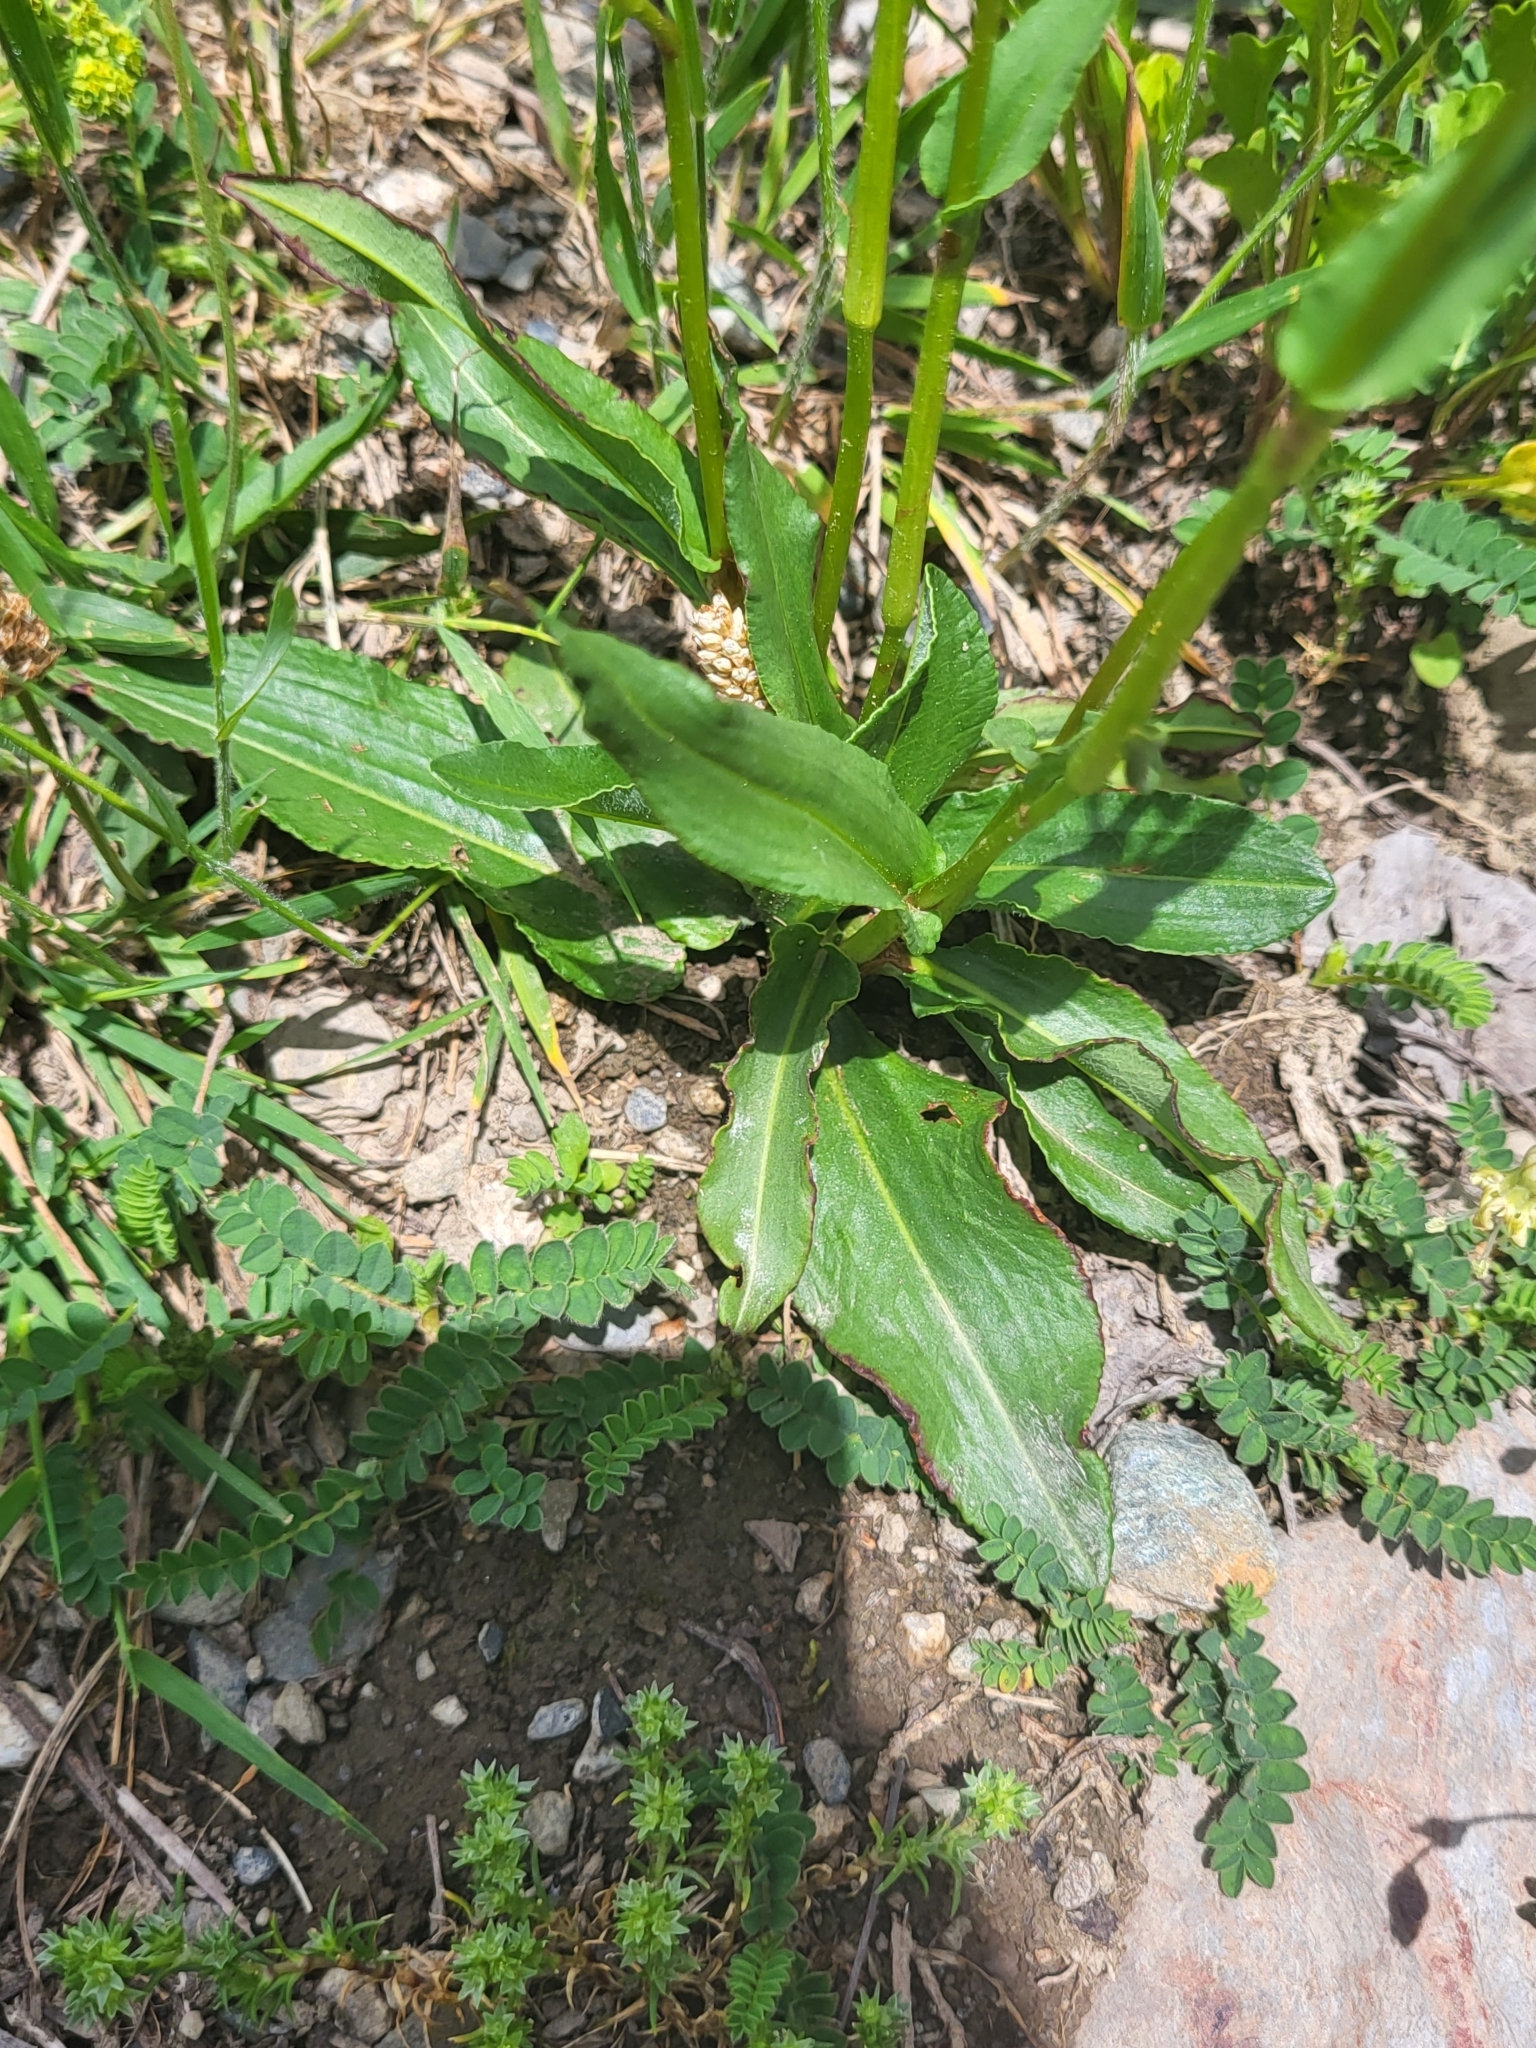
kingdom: Plantae
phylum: Tracheophyta
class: Magnoliopsida
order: Caryophyllales
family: Polygonaceae
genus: Bistorta
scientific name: Bistorta carnea
